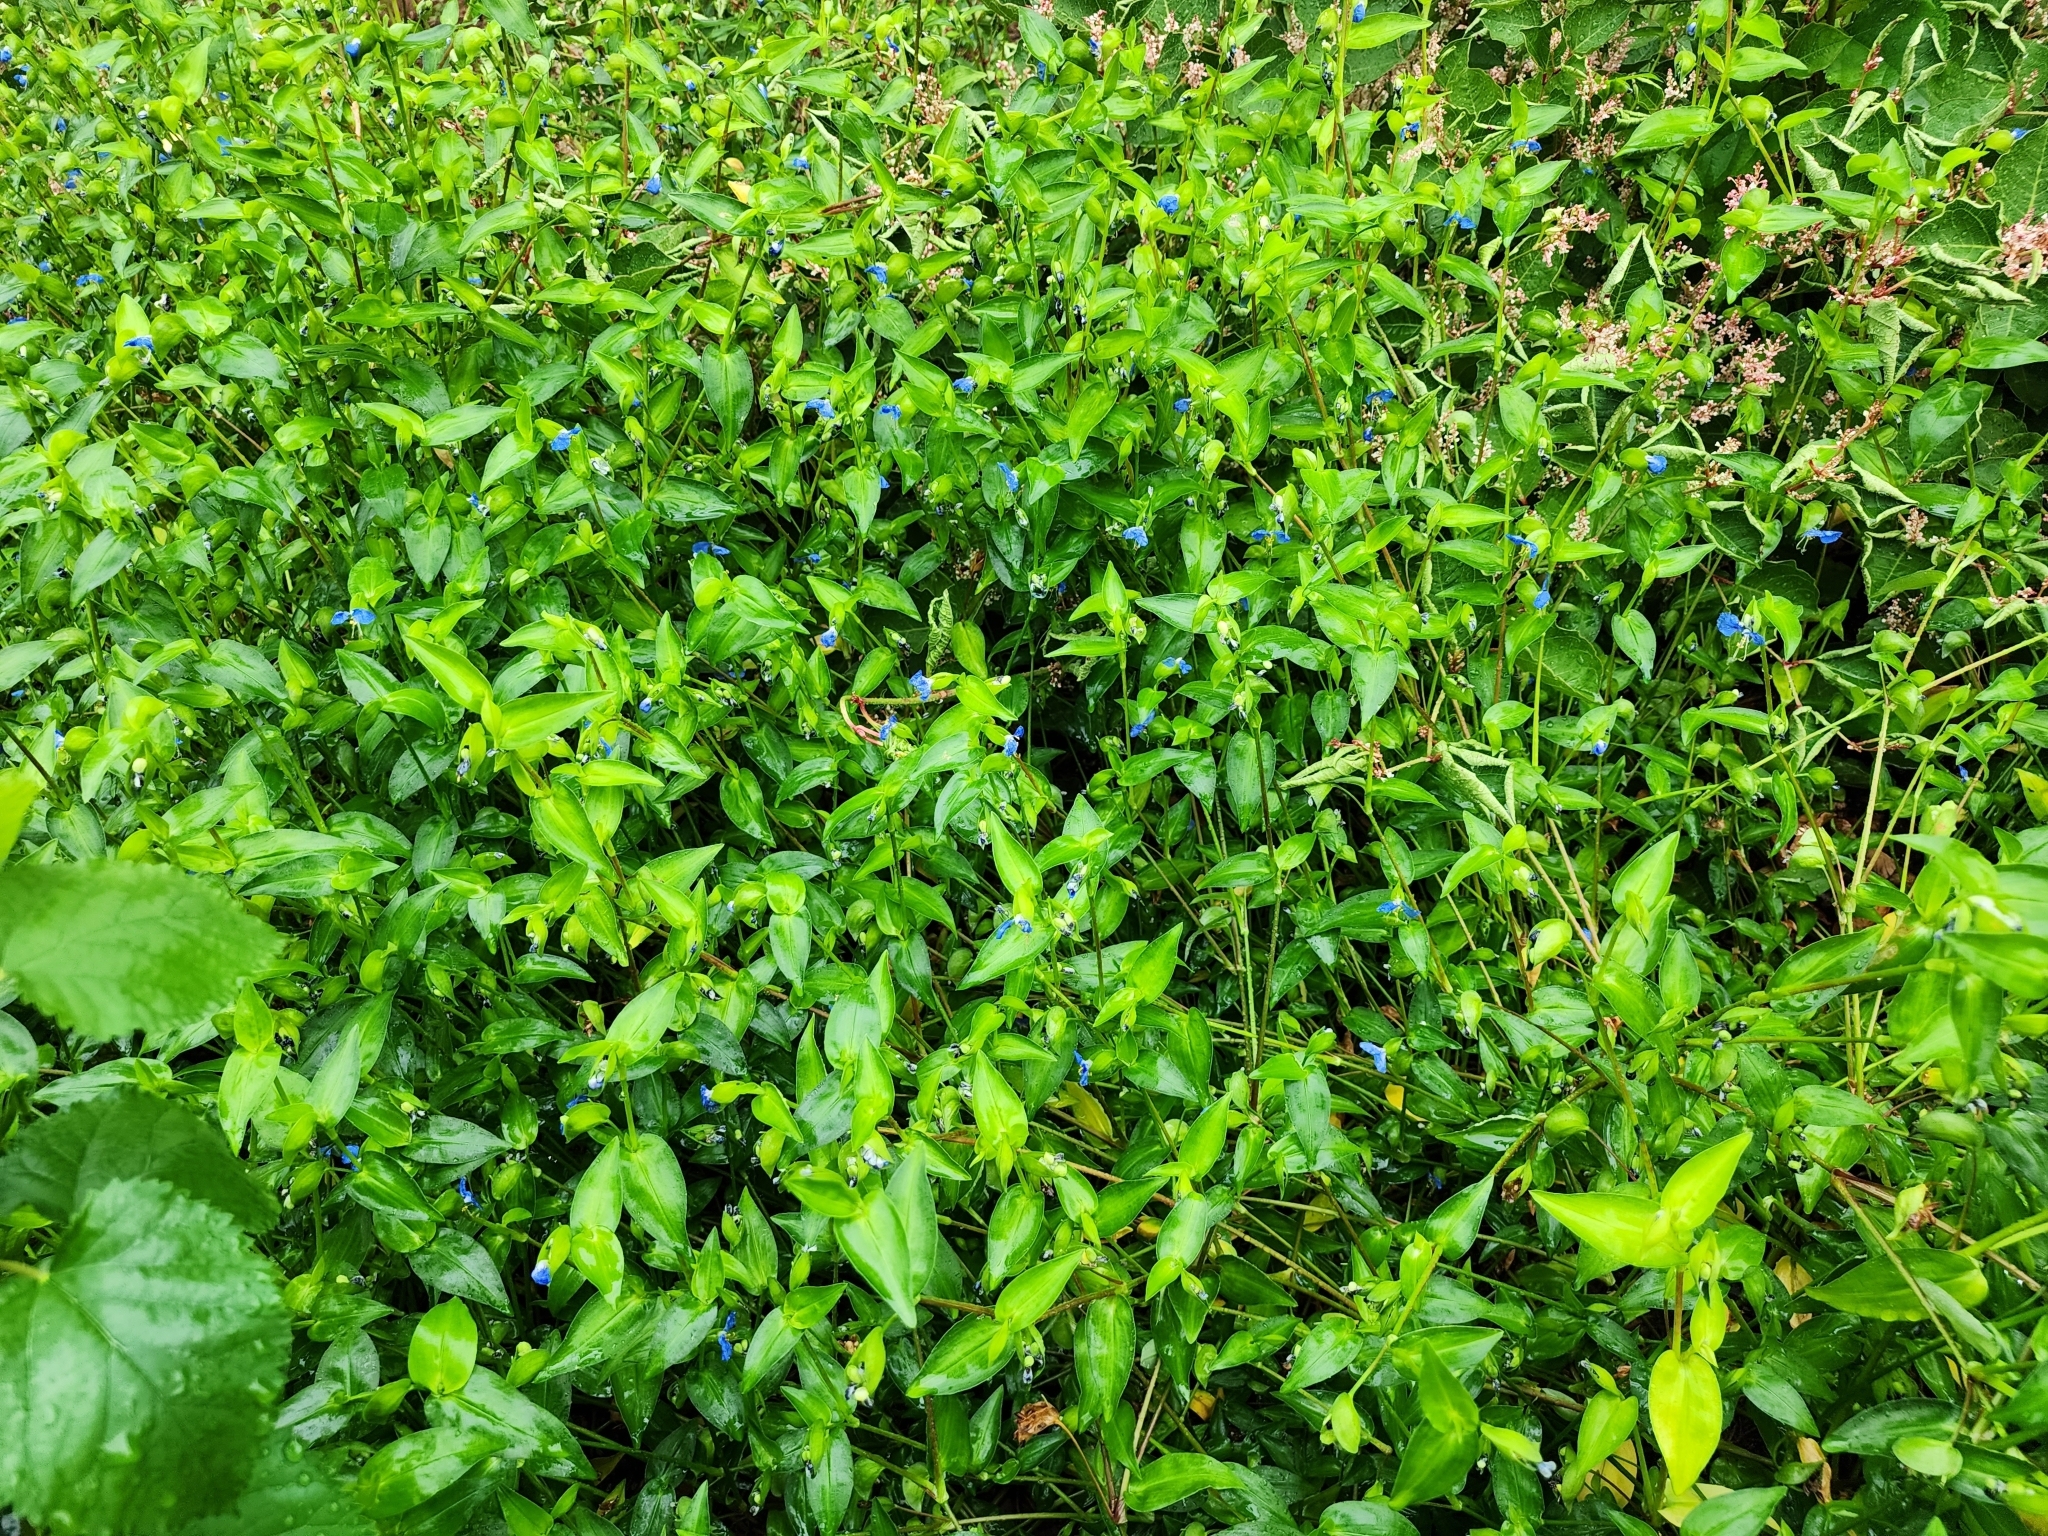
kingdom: Plantae
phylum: Tracheophyta
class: Liliopsida
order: Commelinales
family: Commelinaceae
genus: Commelina
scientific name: Commelina communis
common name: Asiatic dayflower
